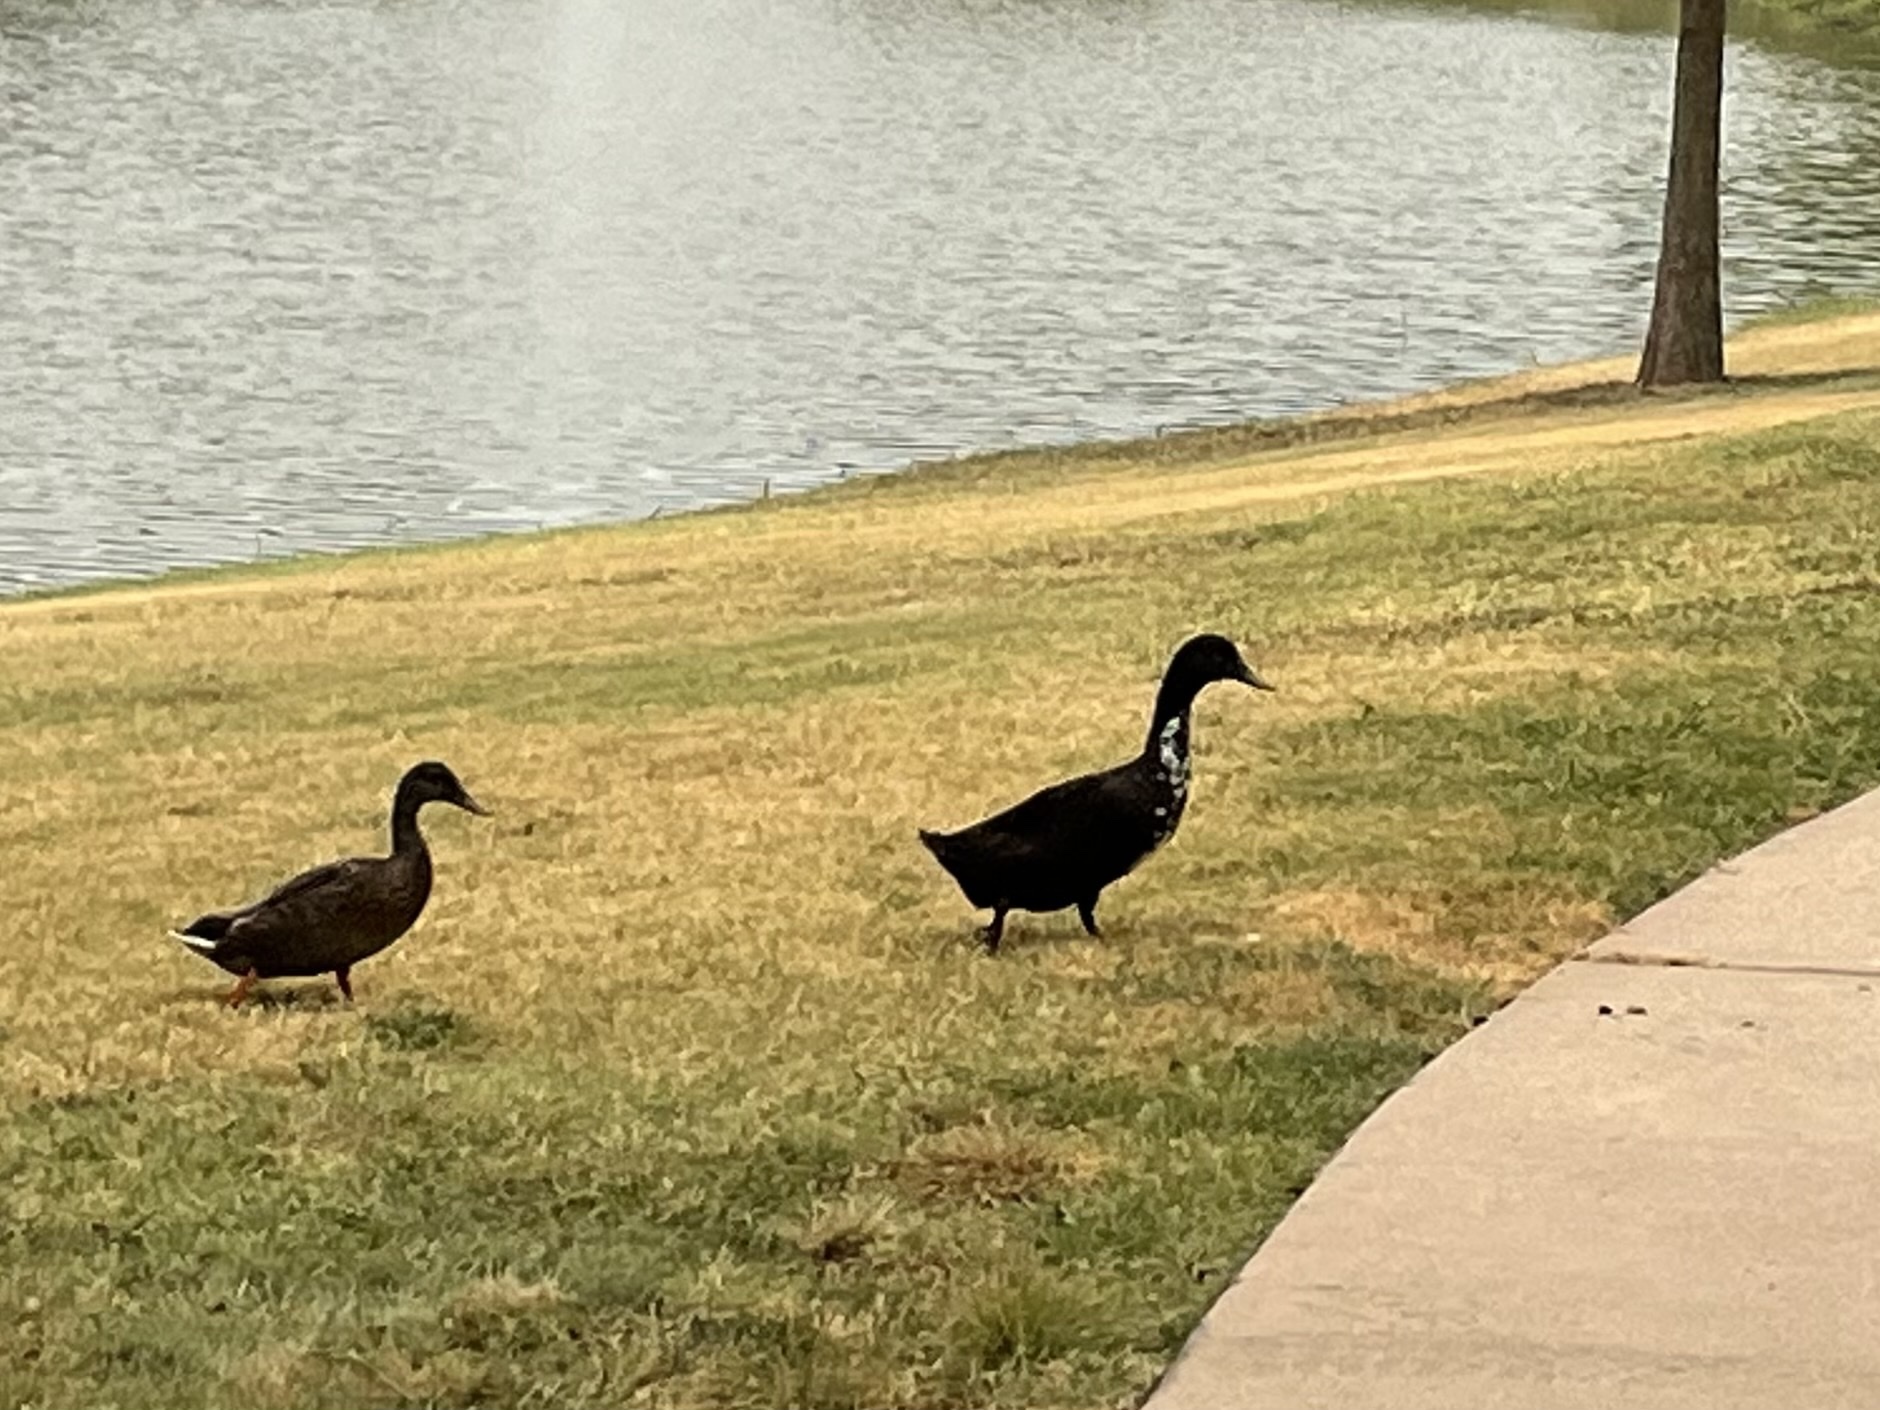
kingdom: Animalia
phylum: Chordata
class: Aves
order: Anseriformes
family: Anatidae
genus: Anas
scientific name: Anas platyrhynchos
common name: Mallard
